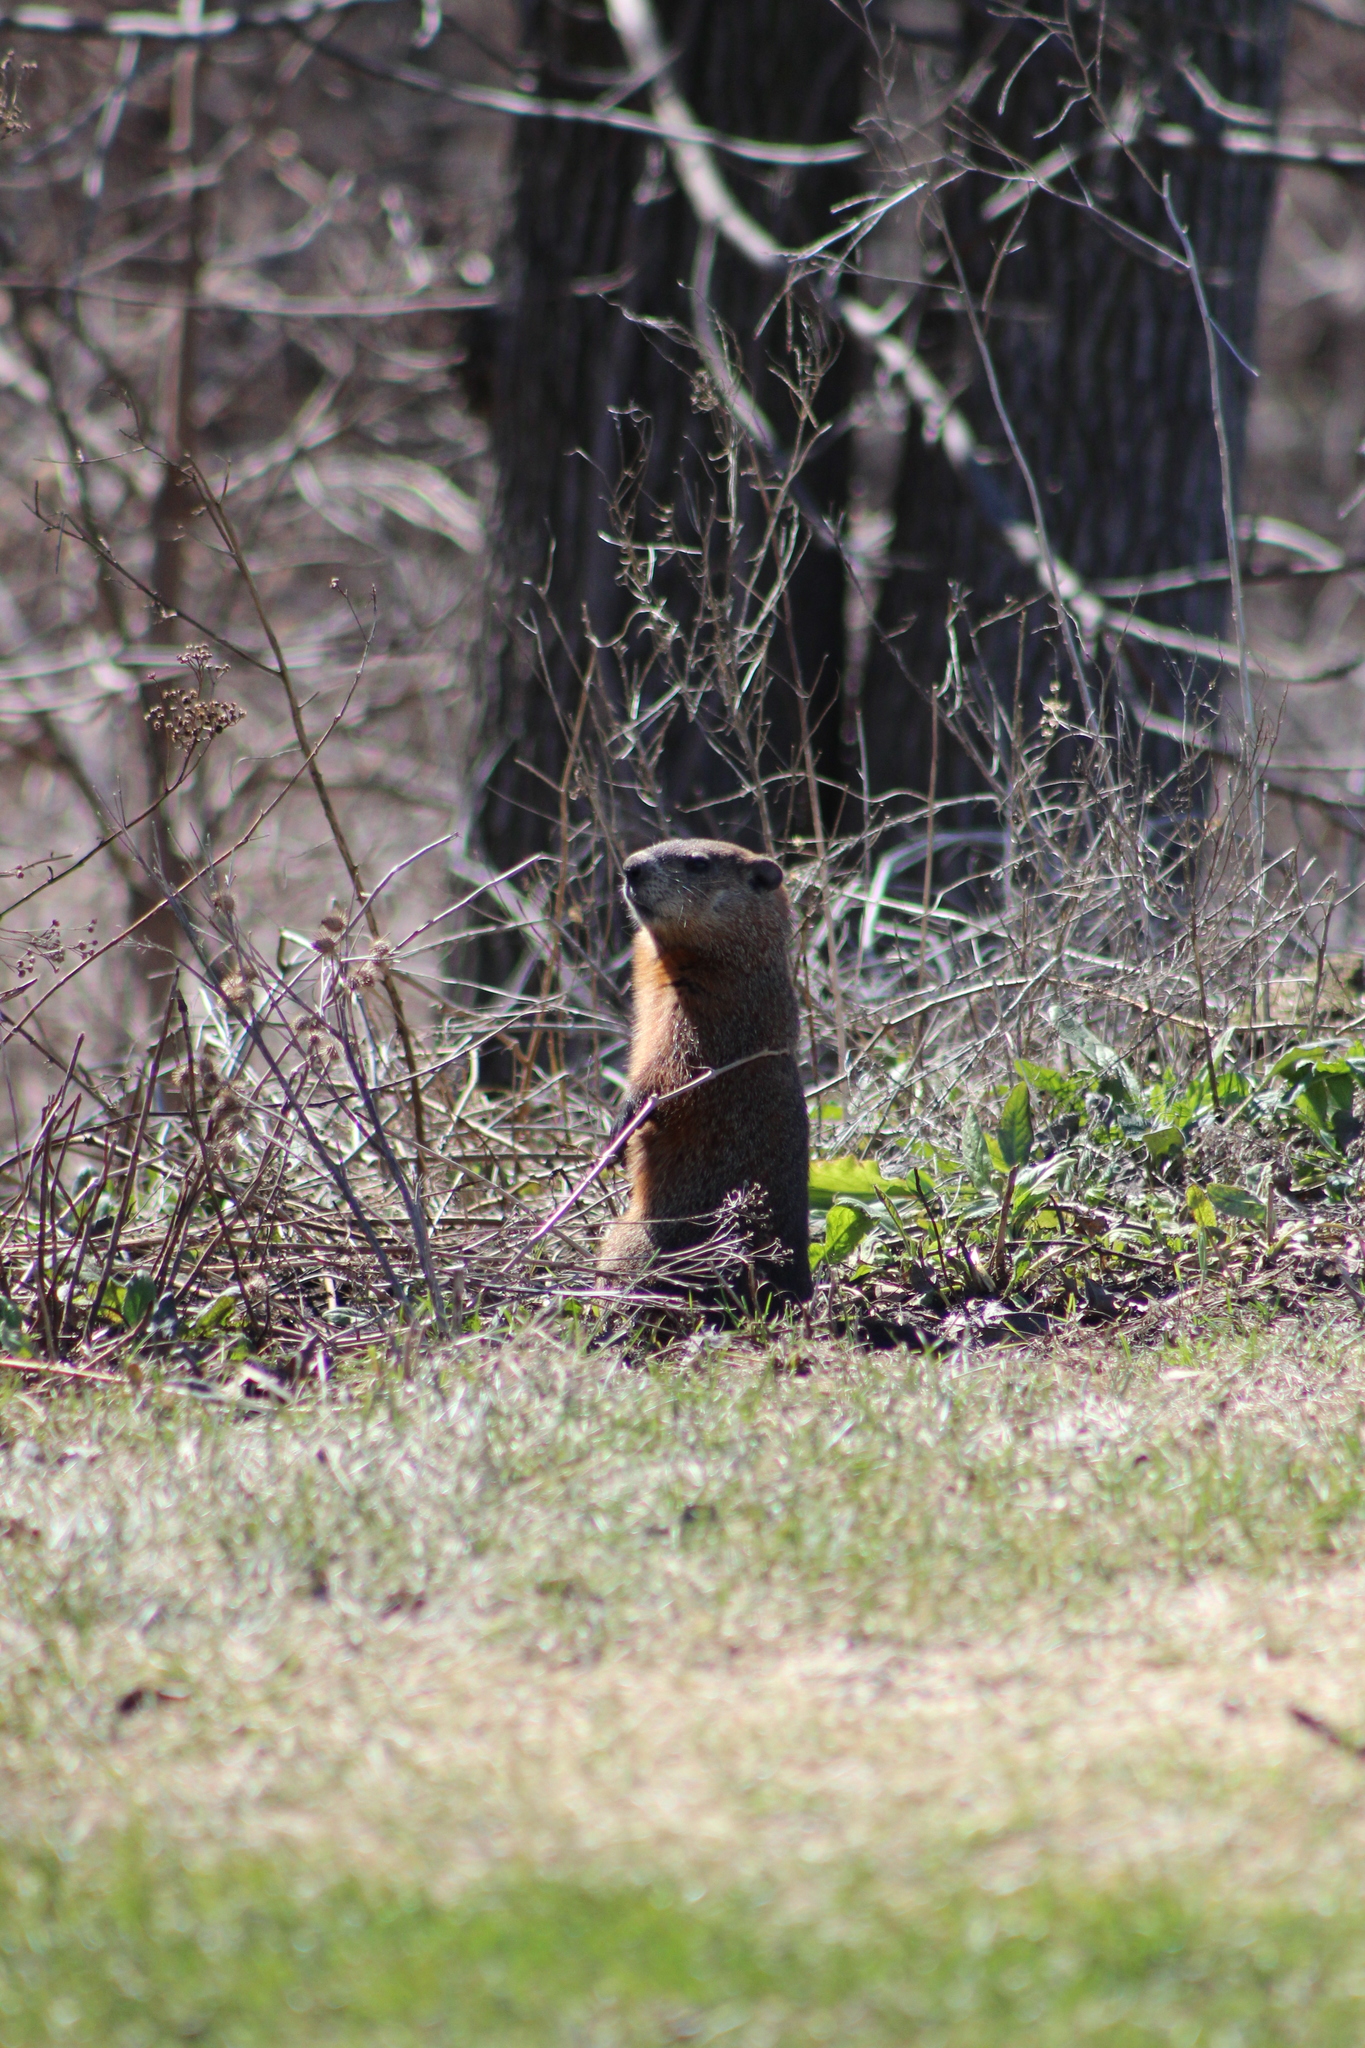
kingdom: Animalia
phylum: Chordata
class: Mammalia
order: Rodentia
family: Sciuridae
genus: Marmota
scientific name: Marmota monax
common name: Groundhog
